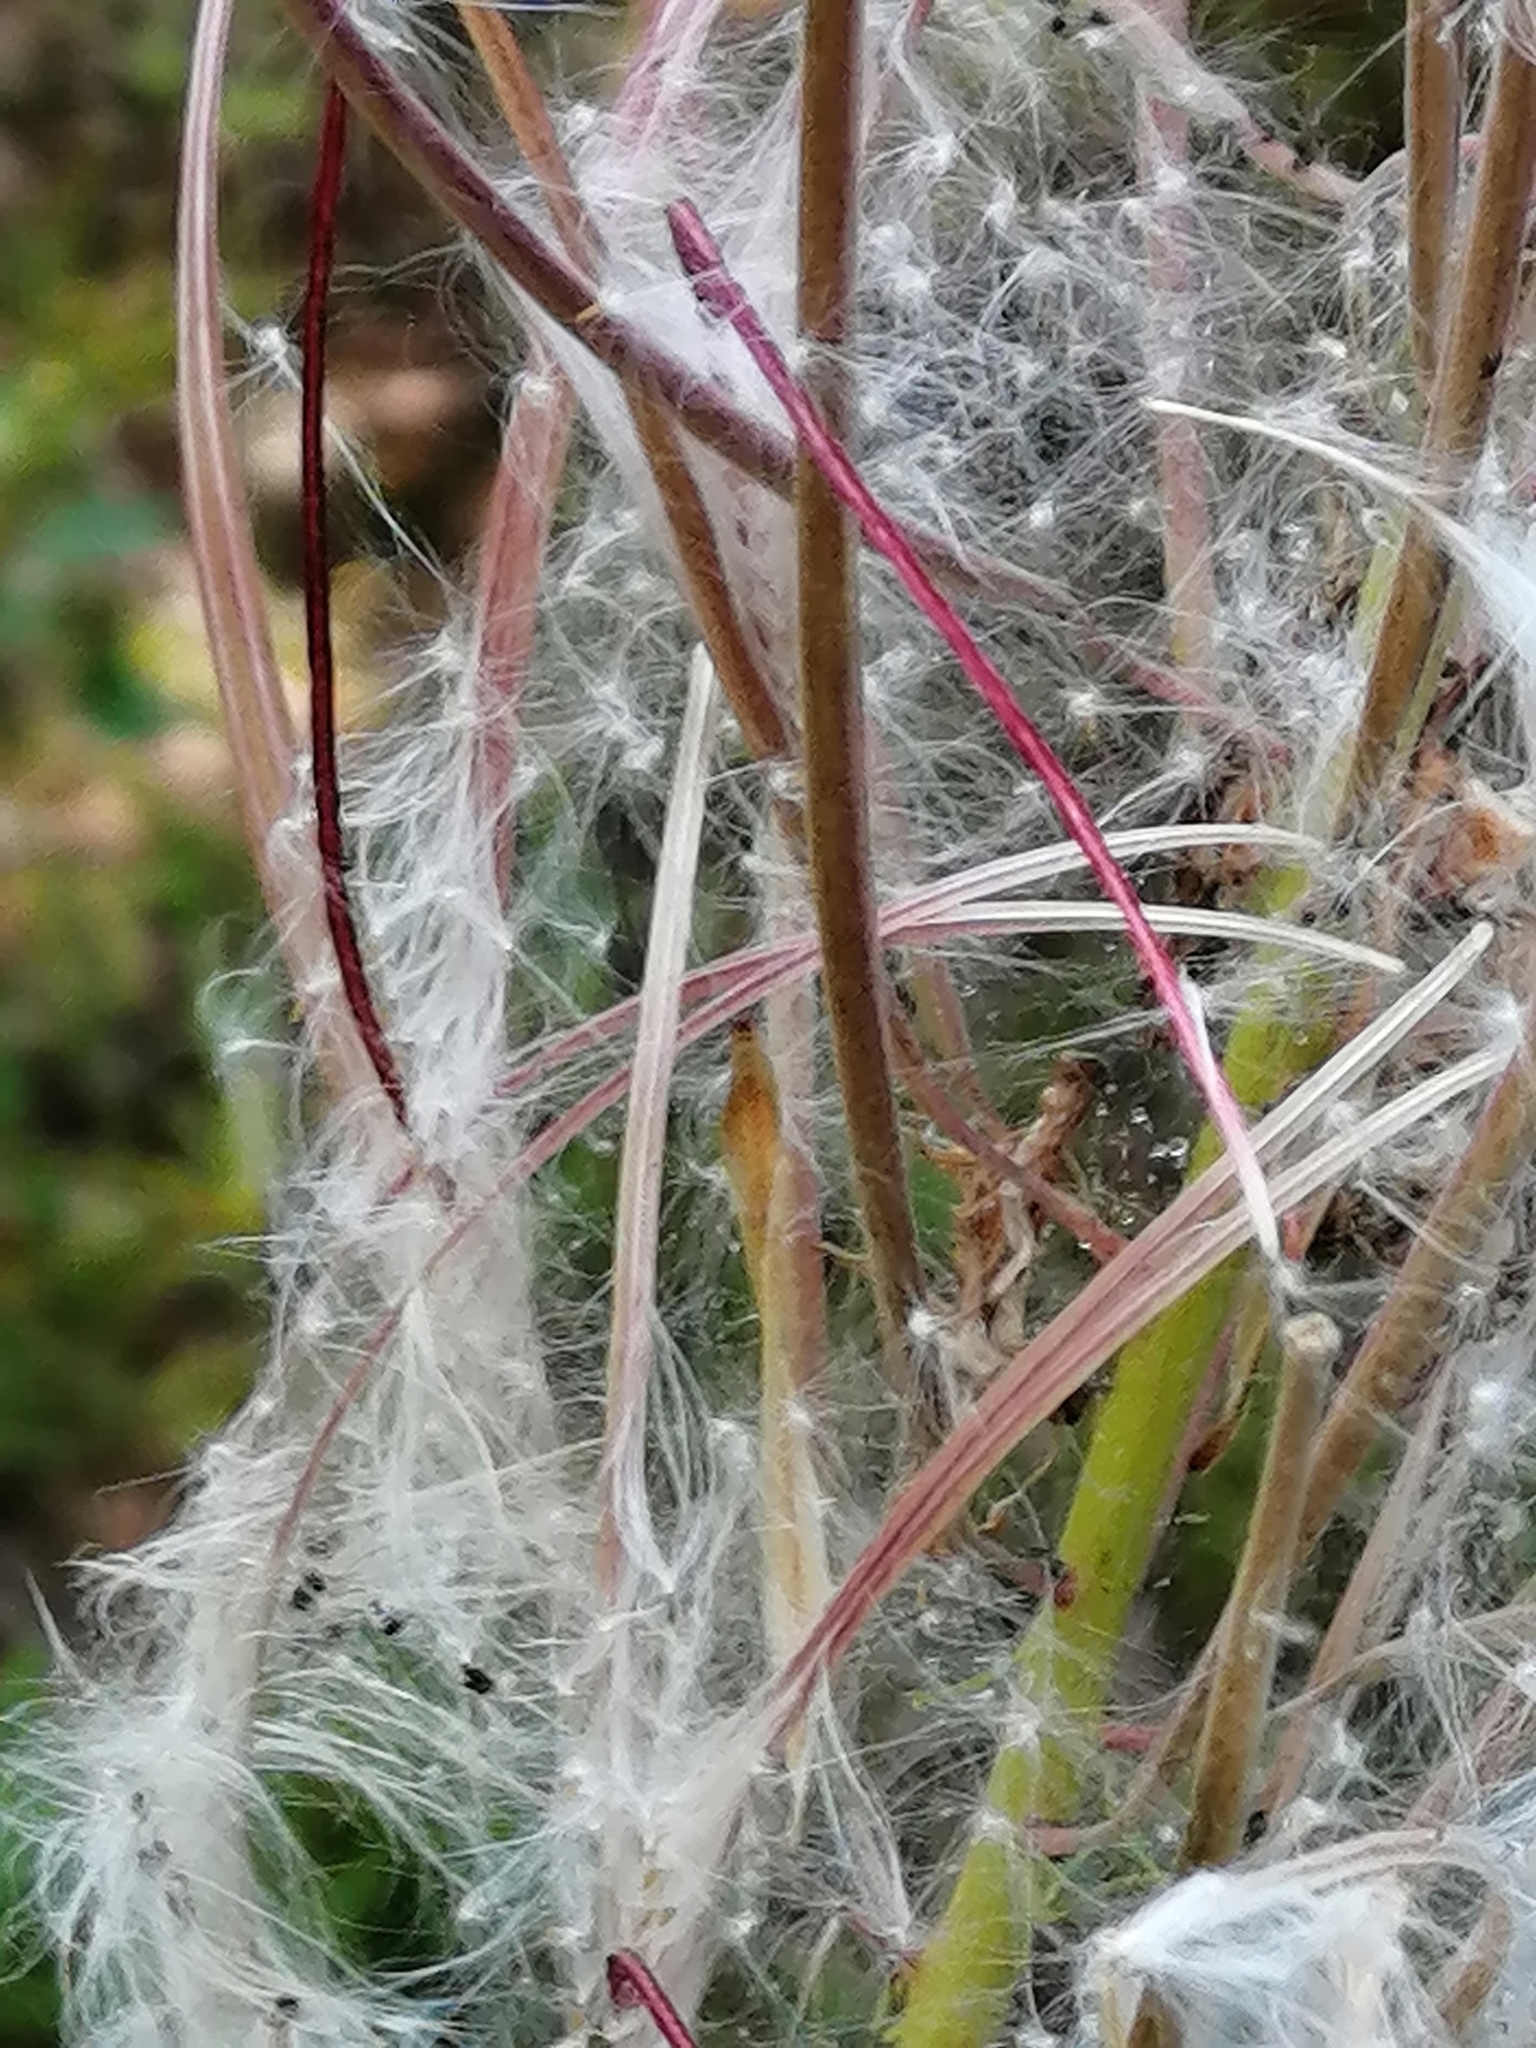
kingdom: Plantae
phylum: Tracheophyta
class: Magnoliopsida
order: Myrtales
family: Onagraceae
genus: Chamaenerion
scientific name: Chamaenerion angustifolium
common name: Fireweed
